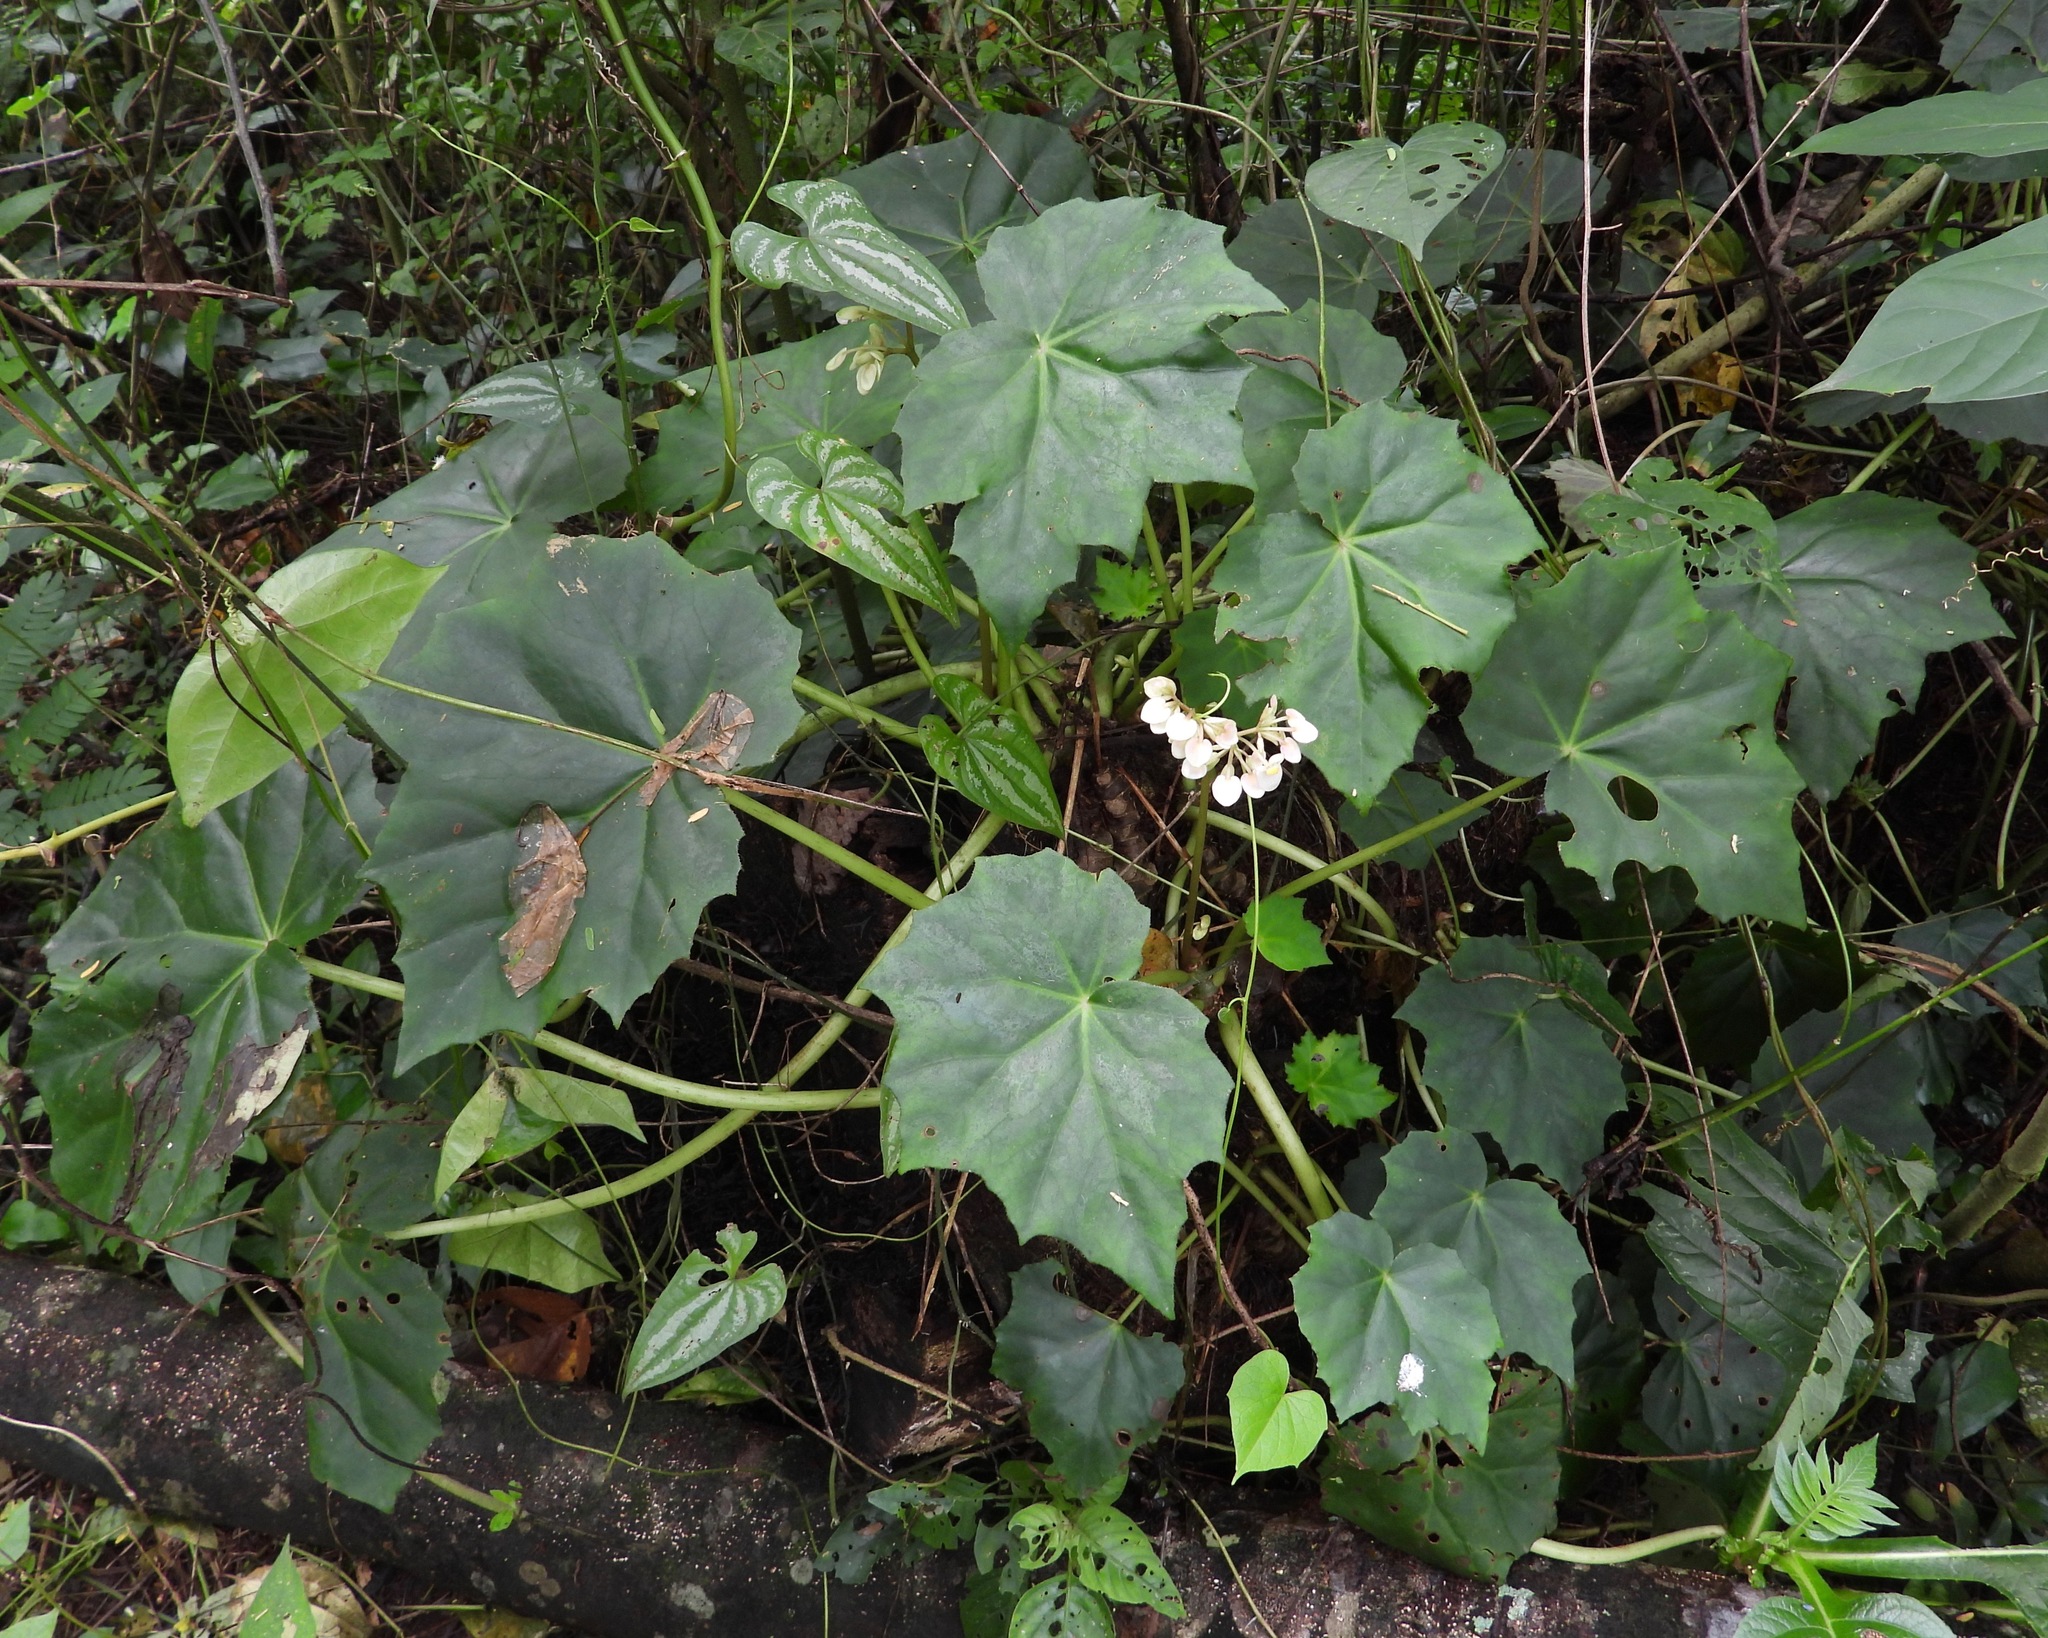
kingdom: Plantae
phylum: Tracheophyta
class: Magnoliopsida
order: Cucurbitales
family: Begoniaceae
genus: Begonia
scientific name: Begonia plebeja
